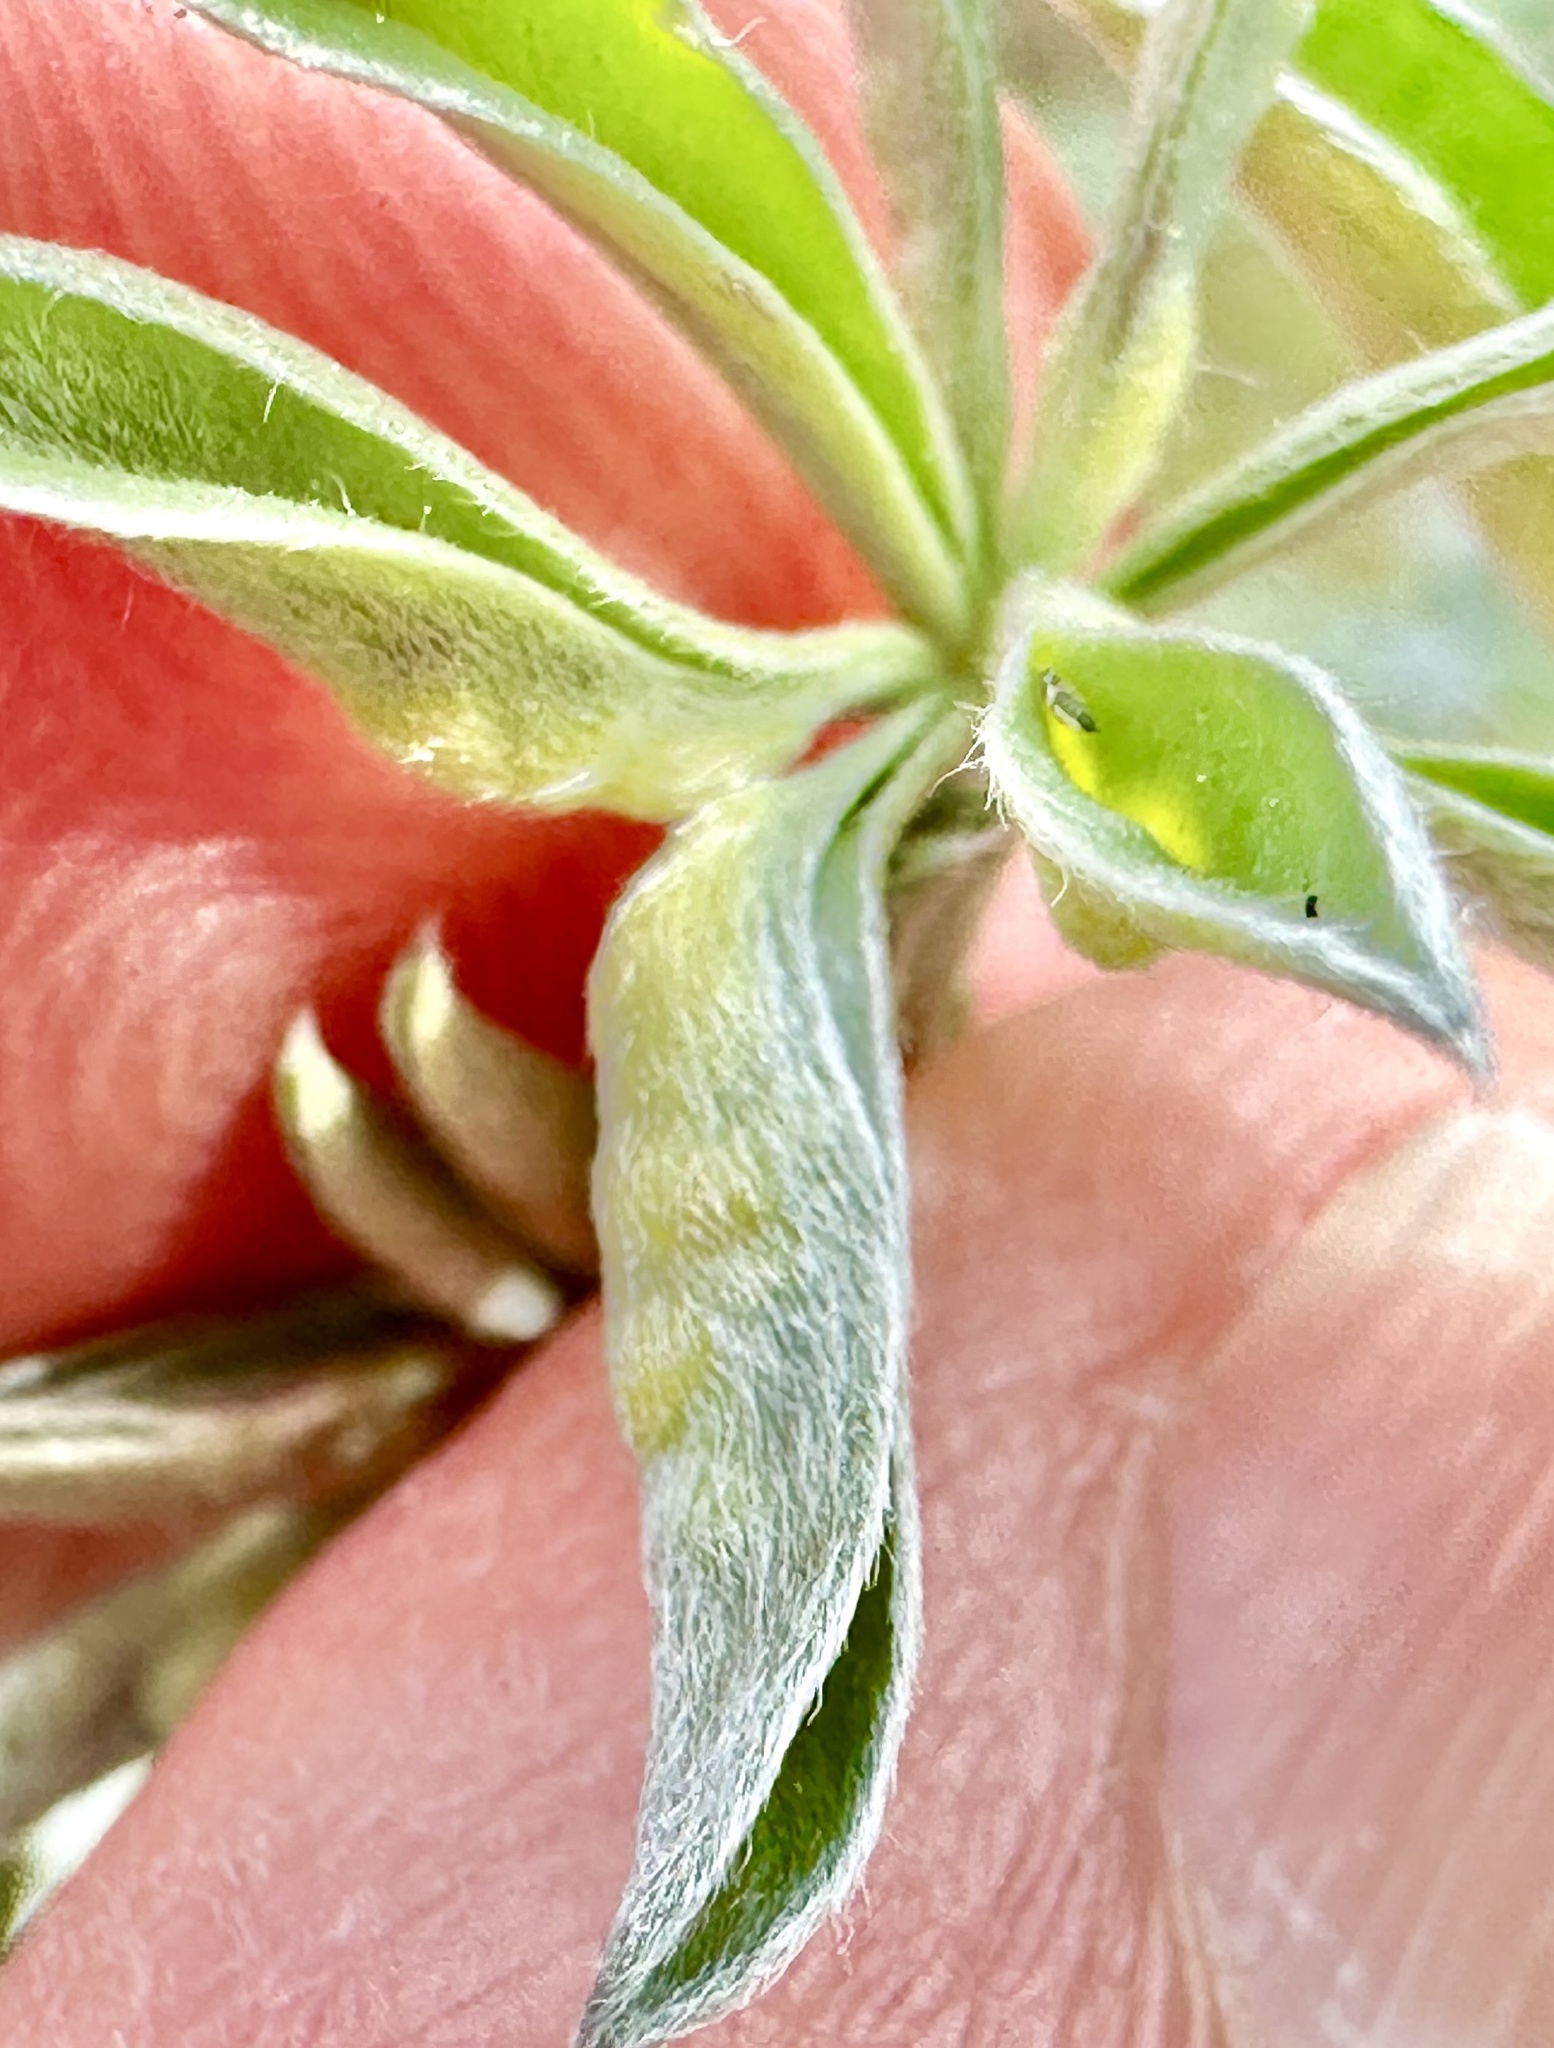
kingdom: Animalia
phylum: Arthropoda
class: Insecta
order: Diptera
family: Cecidomyiidae
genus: Dasineura
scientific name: Dasineura lupinorum
